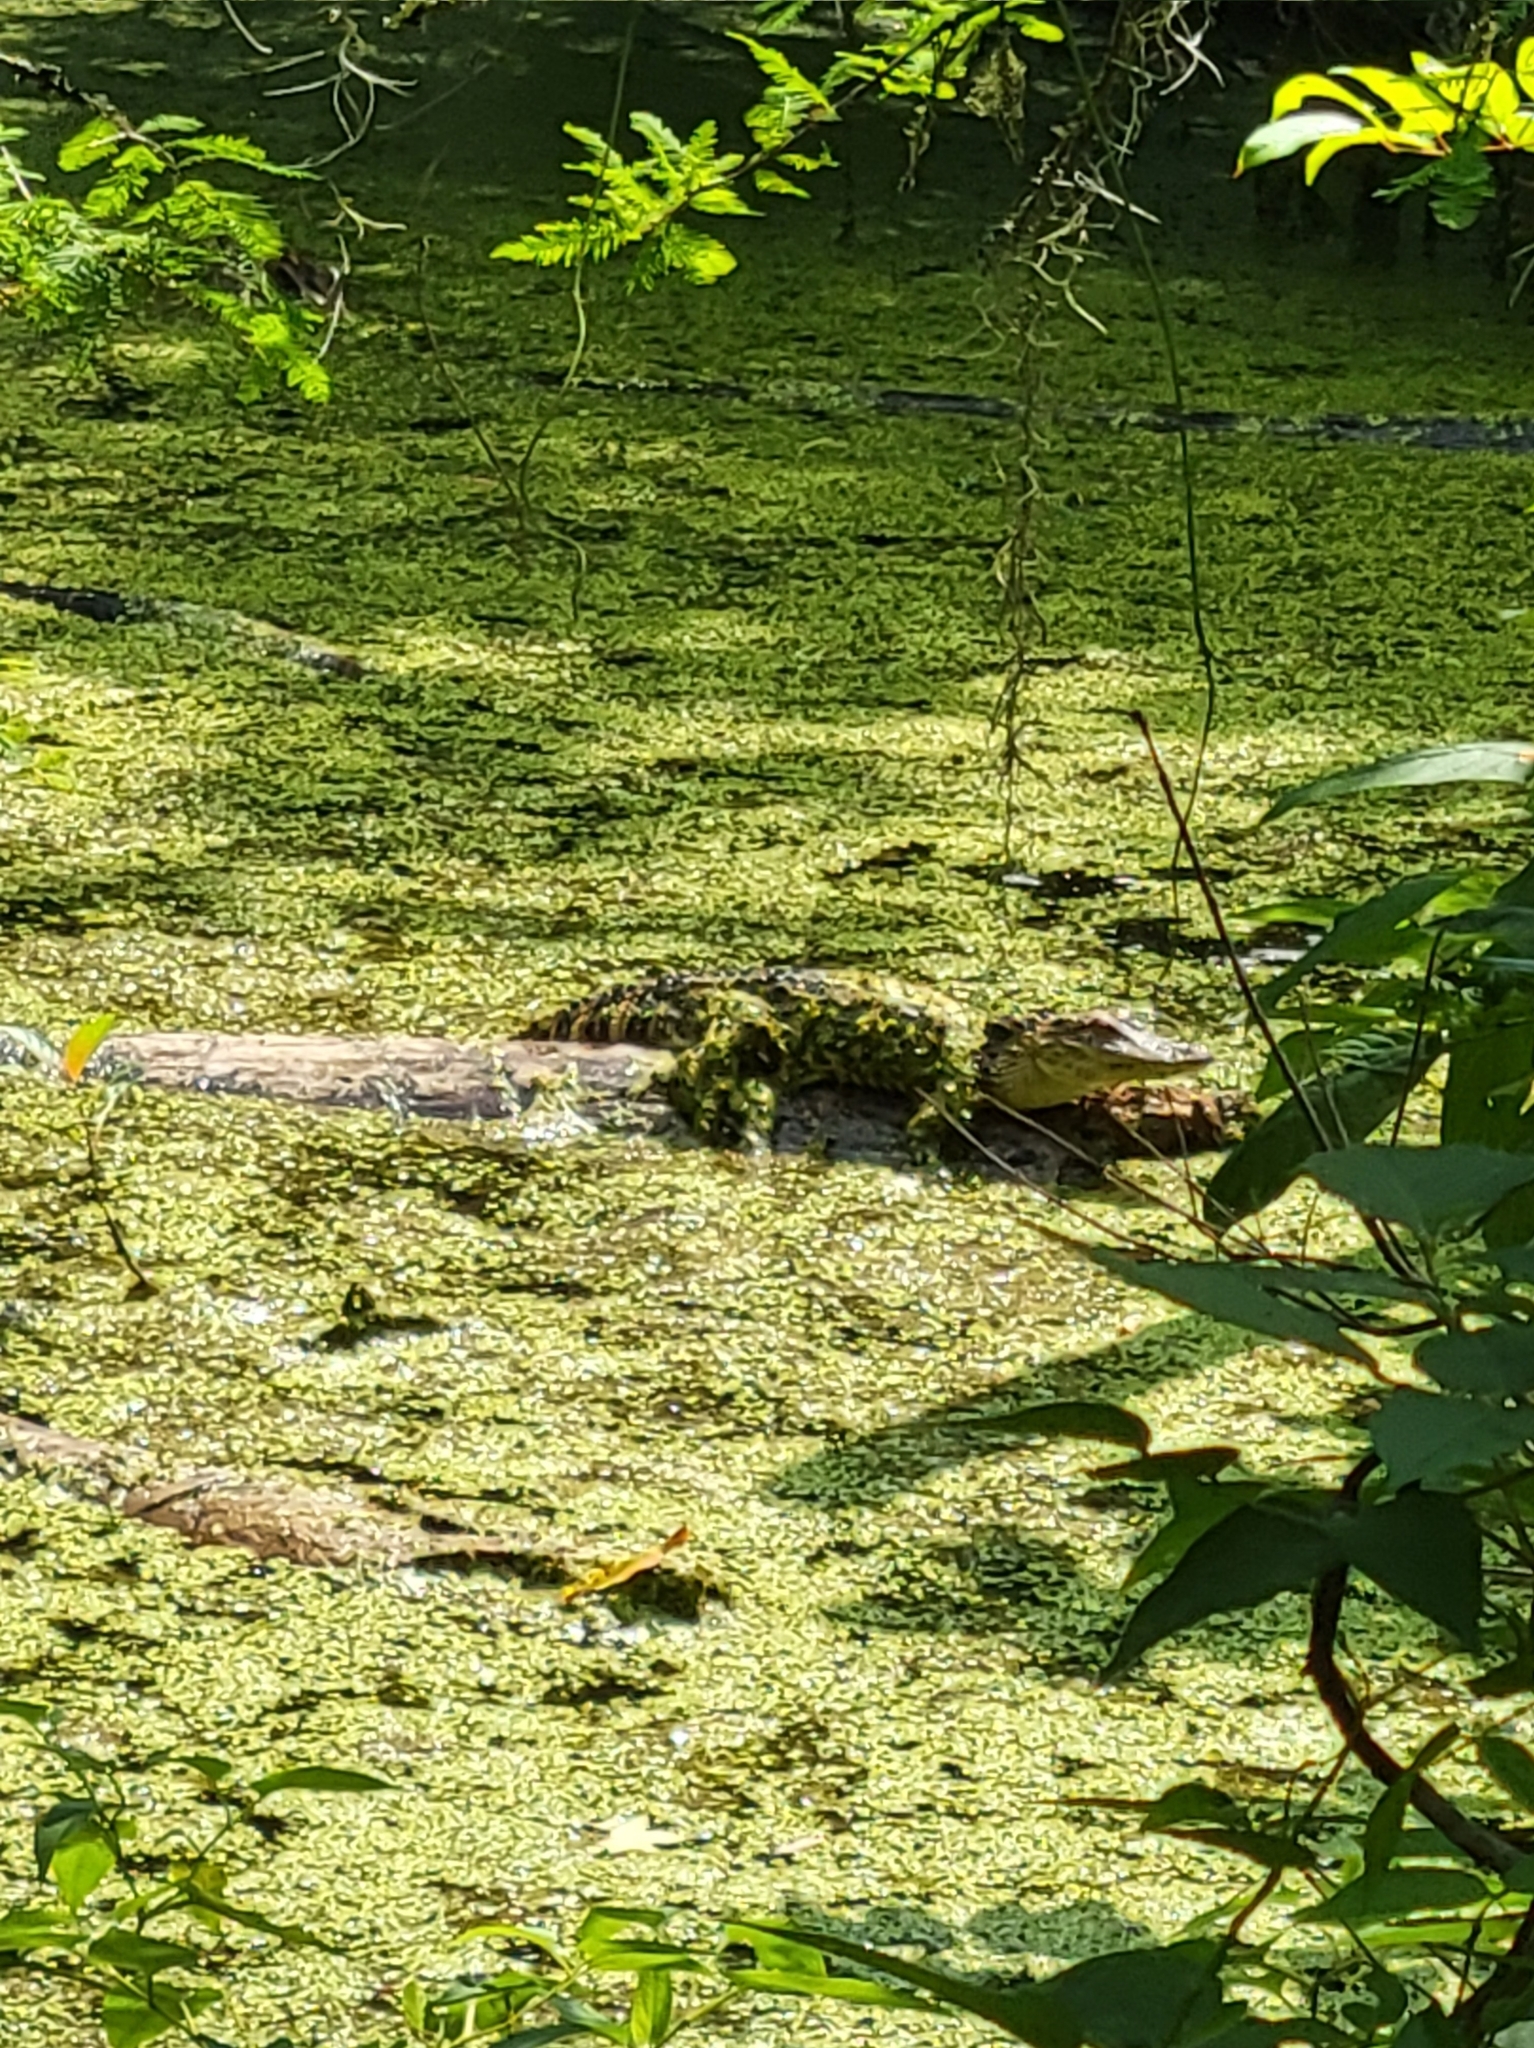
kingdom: Animalia
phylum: Chordata
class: Crocodylia
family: Alligatoridae
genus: Alligator
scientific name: Alligator mississippiensis
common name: American alligator
